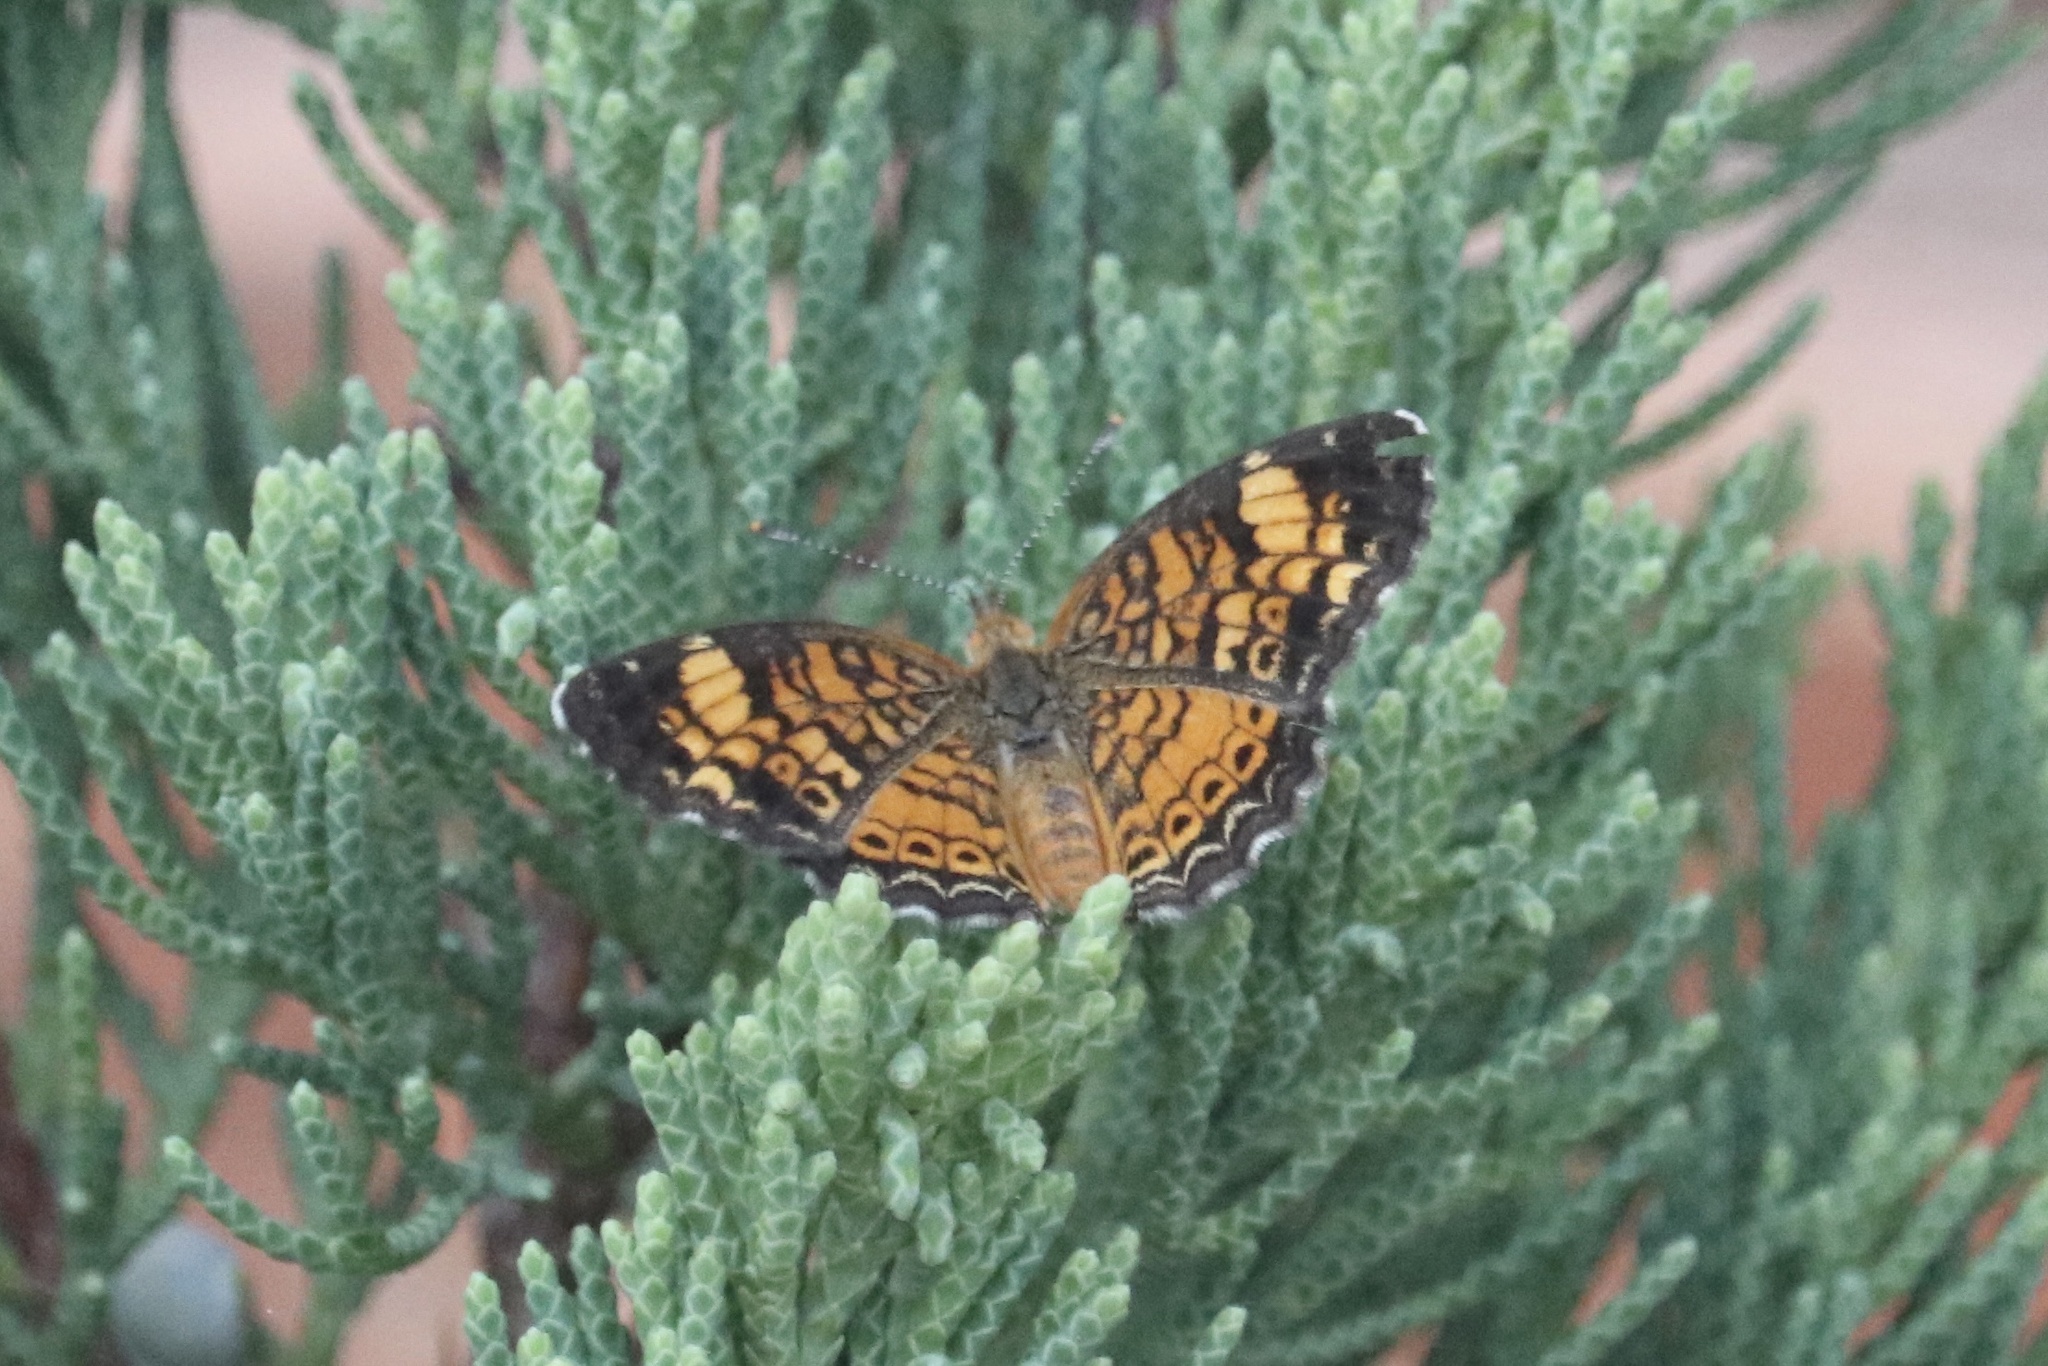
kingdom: Animalia
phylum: Arthropoda
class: Insecta
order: Lepidoptera
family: Nymphalidae
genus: Phyciodes
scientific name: Phyciodes tharos
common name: Pearl crescent
